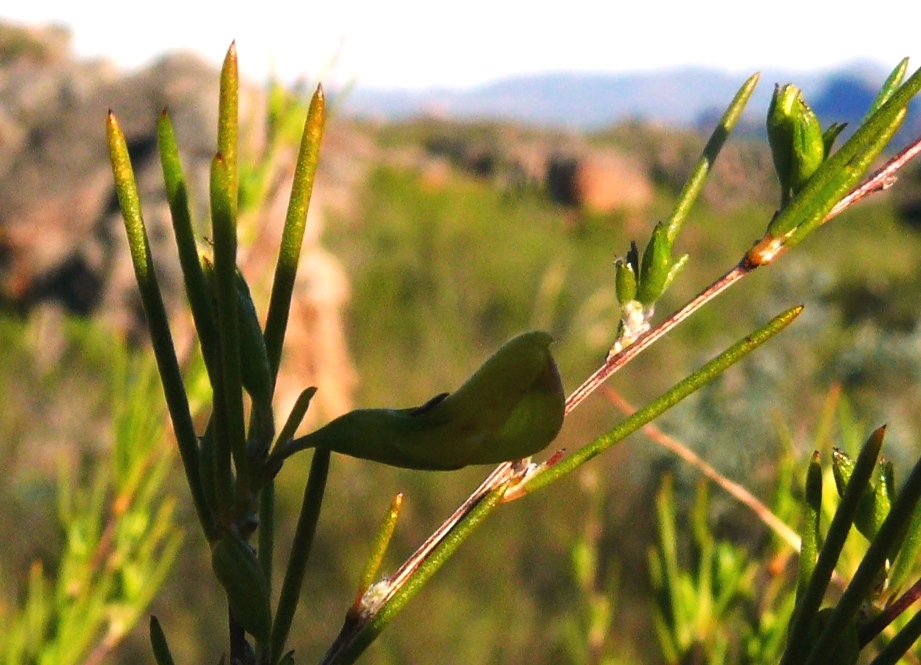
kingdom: Plantae
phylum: Tracheophyta
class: Magnoliopsida
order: Fabales
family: Fabaceae
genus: Aspalathus
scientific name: Aspalathus linearis
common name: Rooibos-tea
